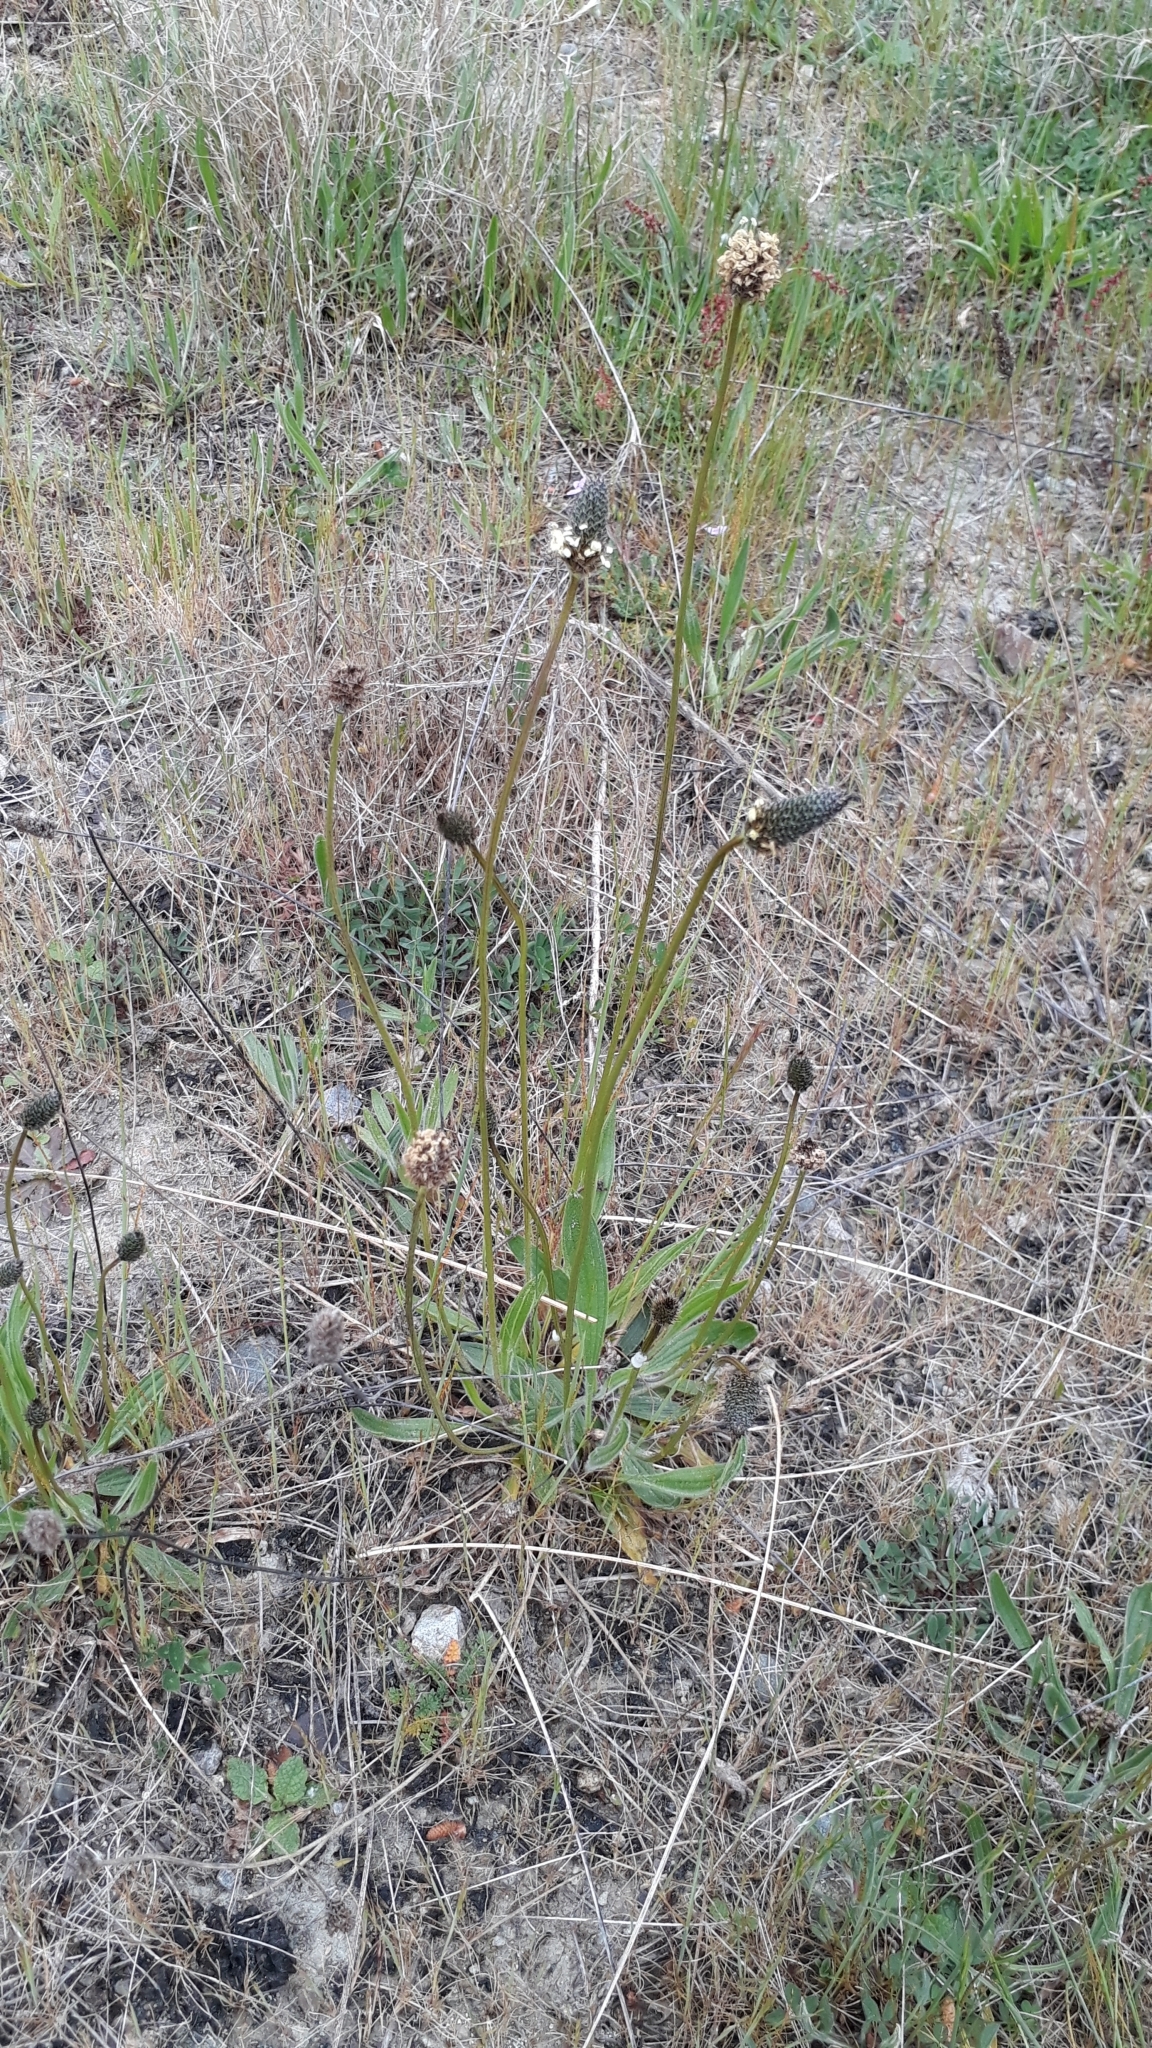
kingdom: Plantae
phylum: Tracheophyta
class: Magnoliopsida
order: Lamiales
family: Plantaginaceae
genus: Plantago
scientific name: Plantago lanceolata
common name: Ribwort plantain
